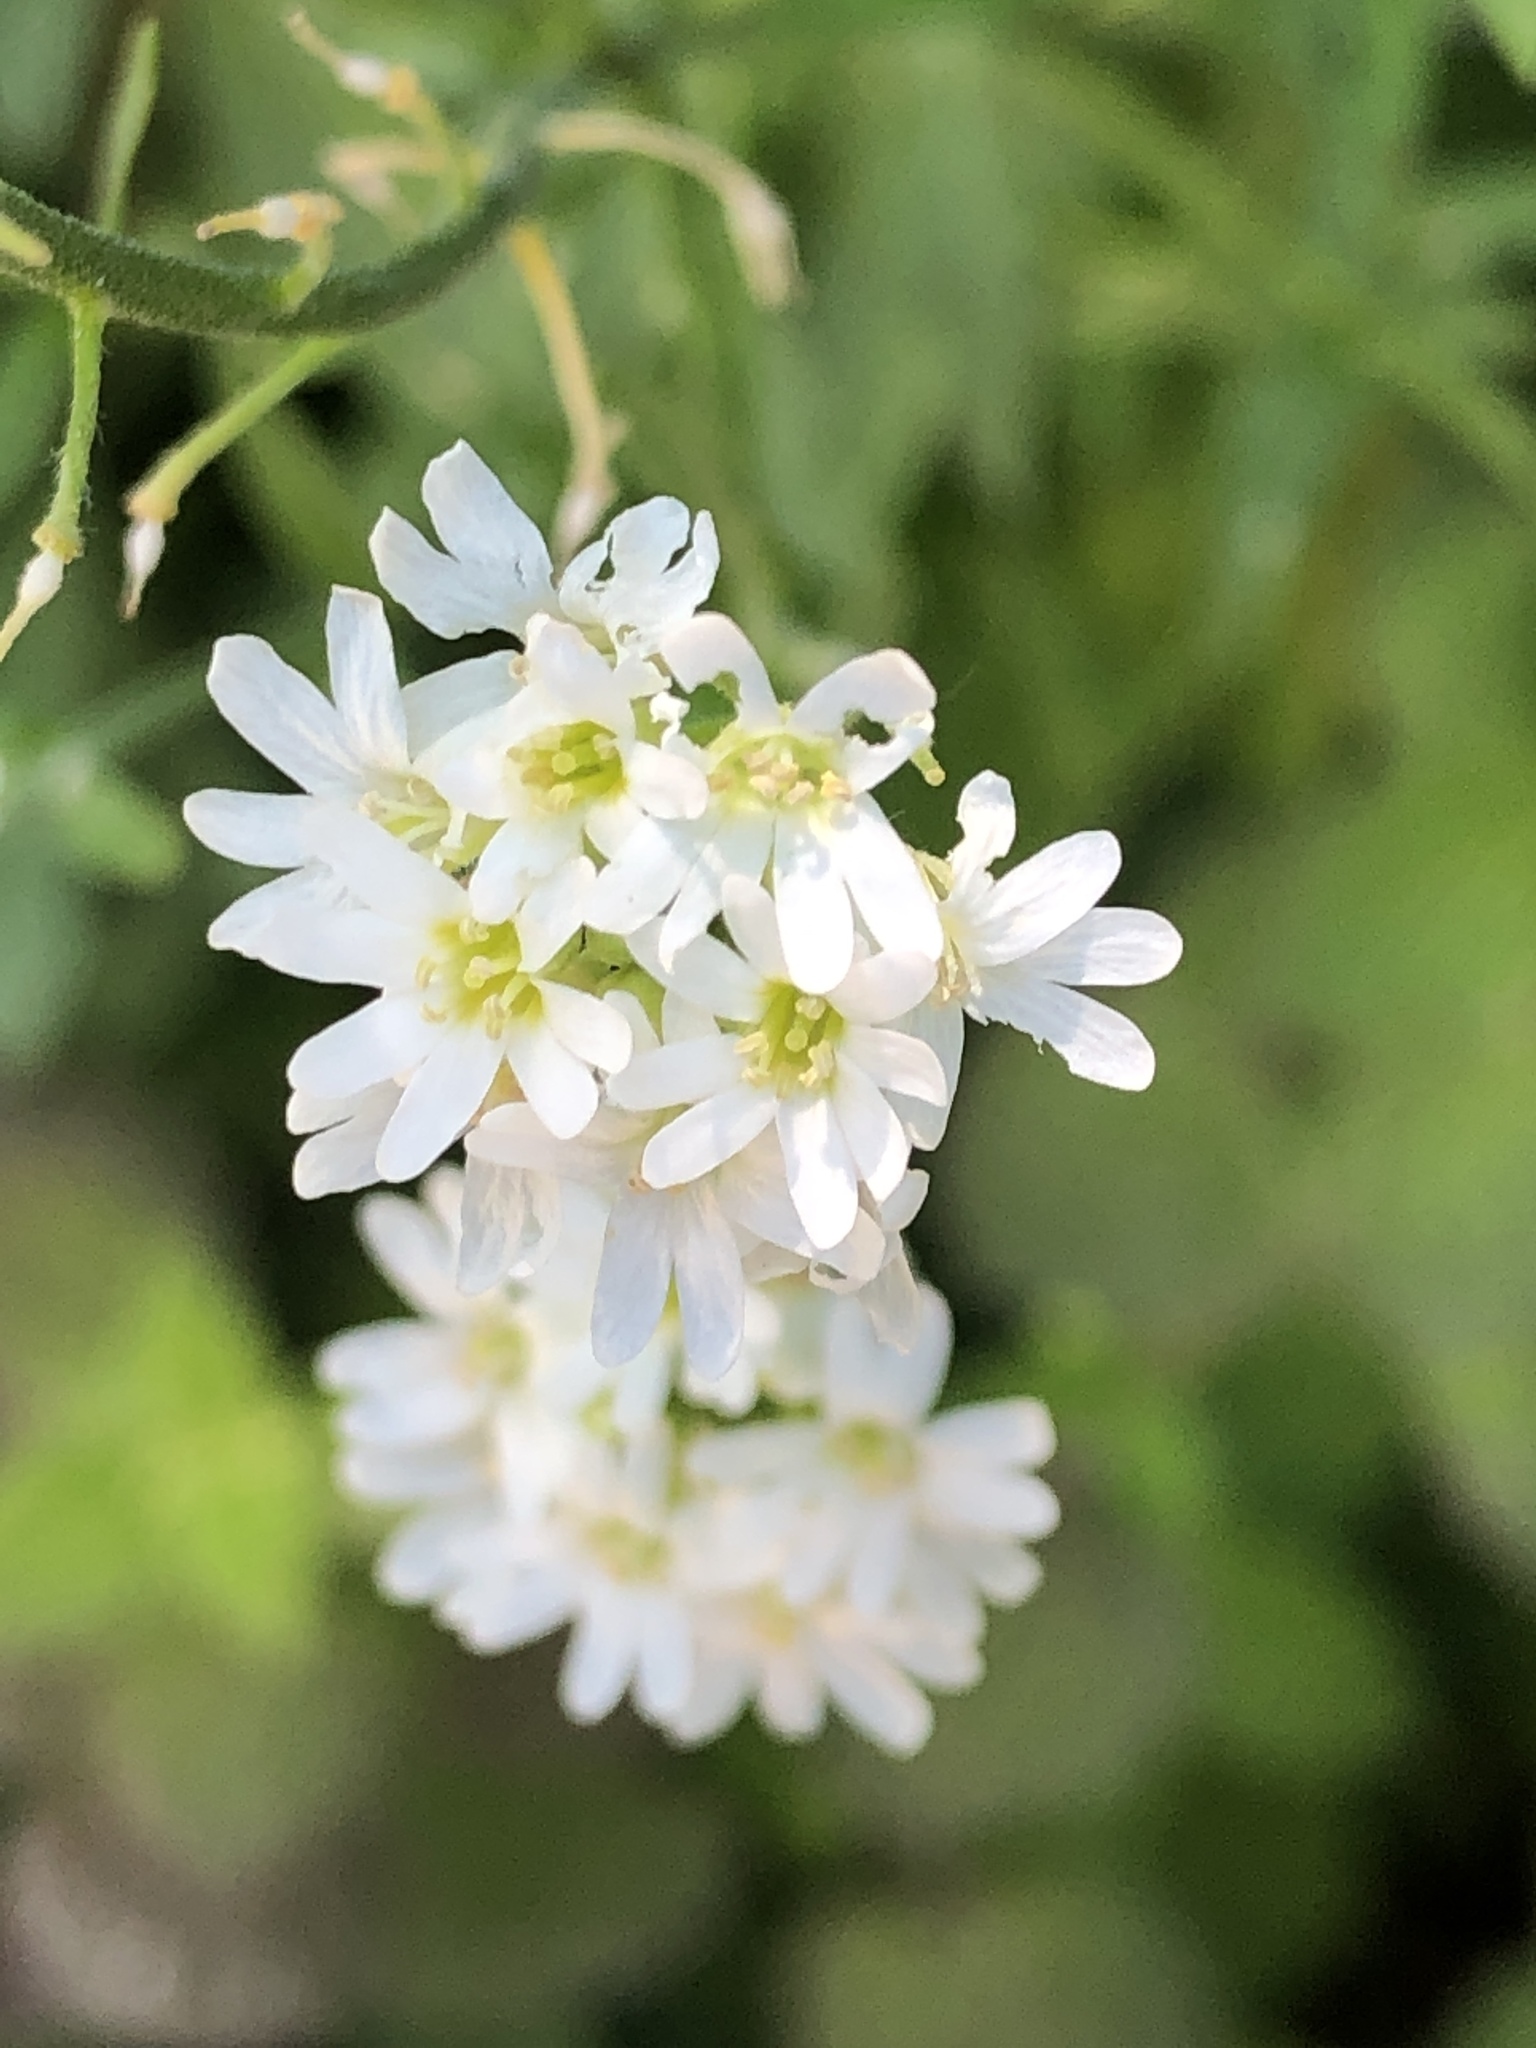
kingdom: Plantae
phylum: Tracheophyta
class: Magnoliopsida
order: Brassicales
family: Brassicaceae
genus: Berteroa
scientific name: Berteroa incana
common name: Hoary alison
